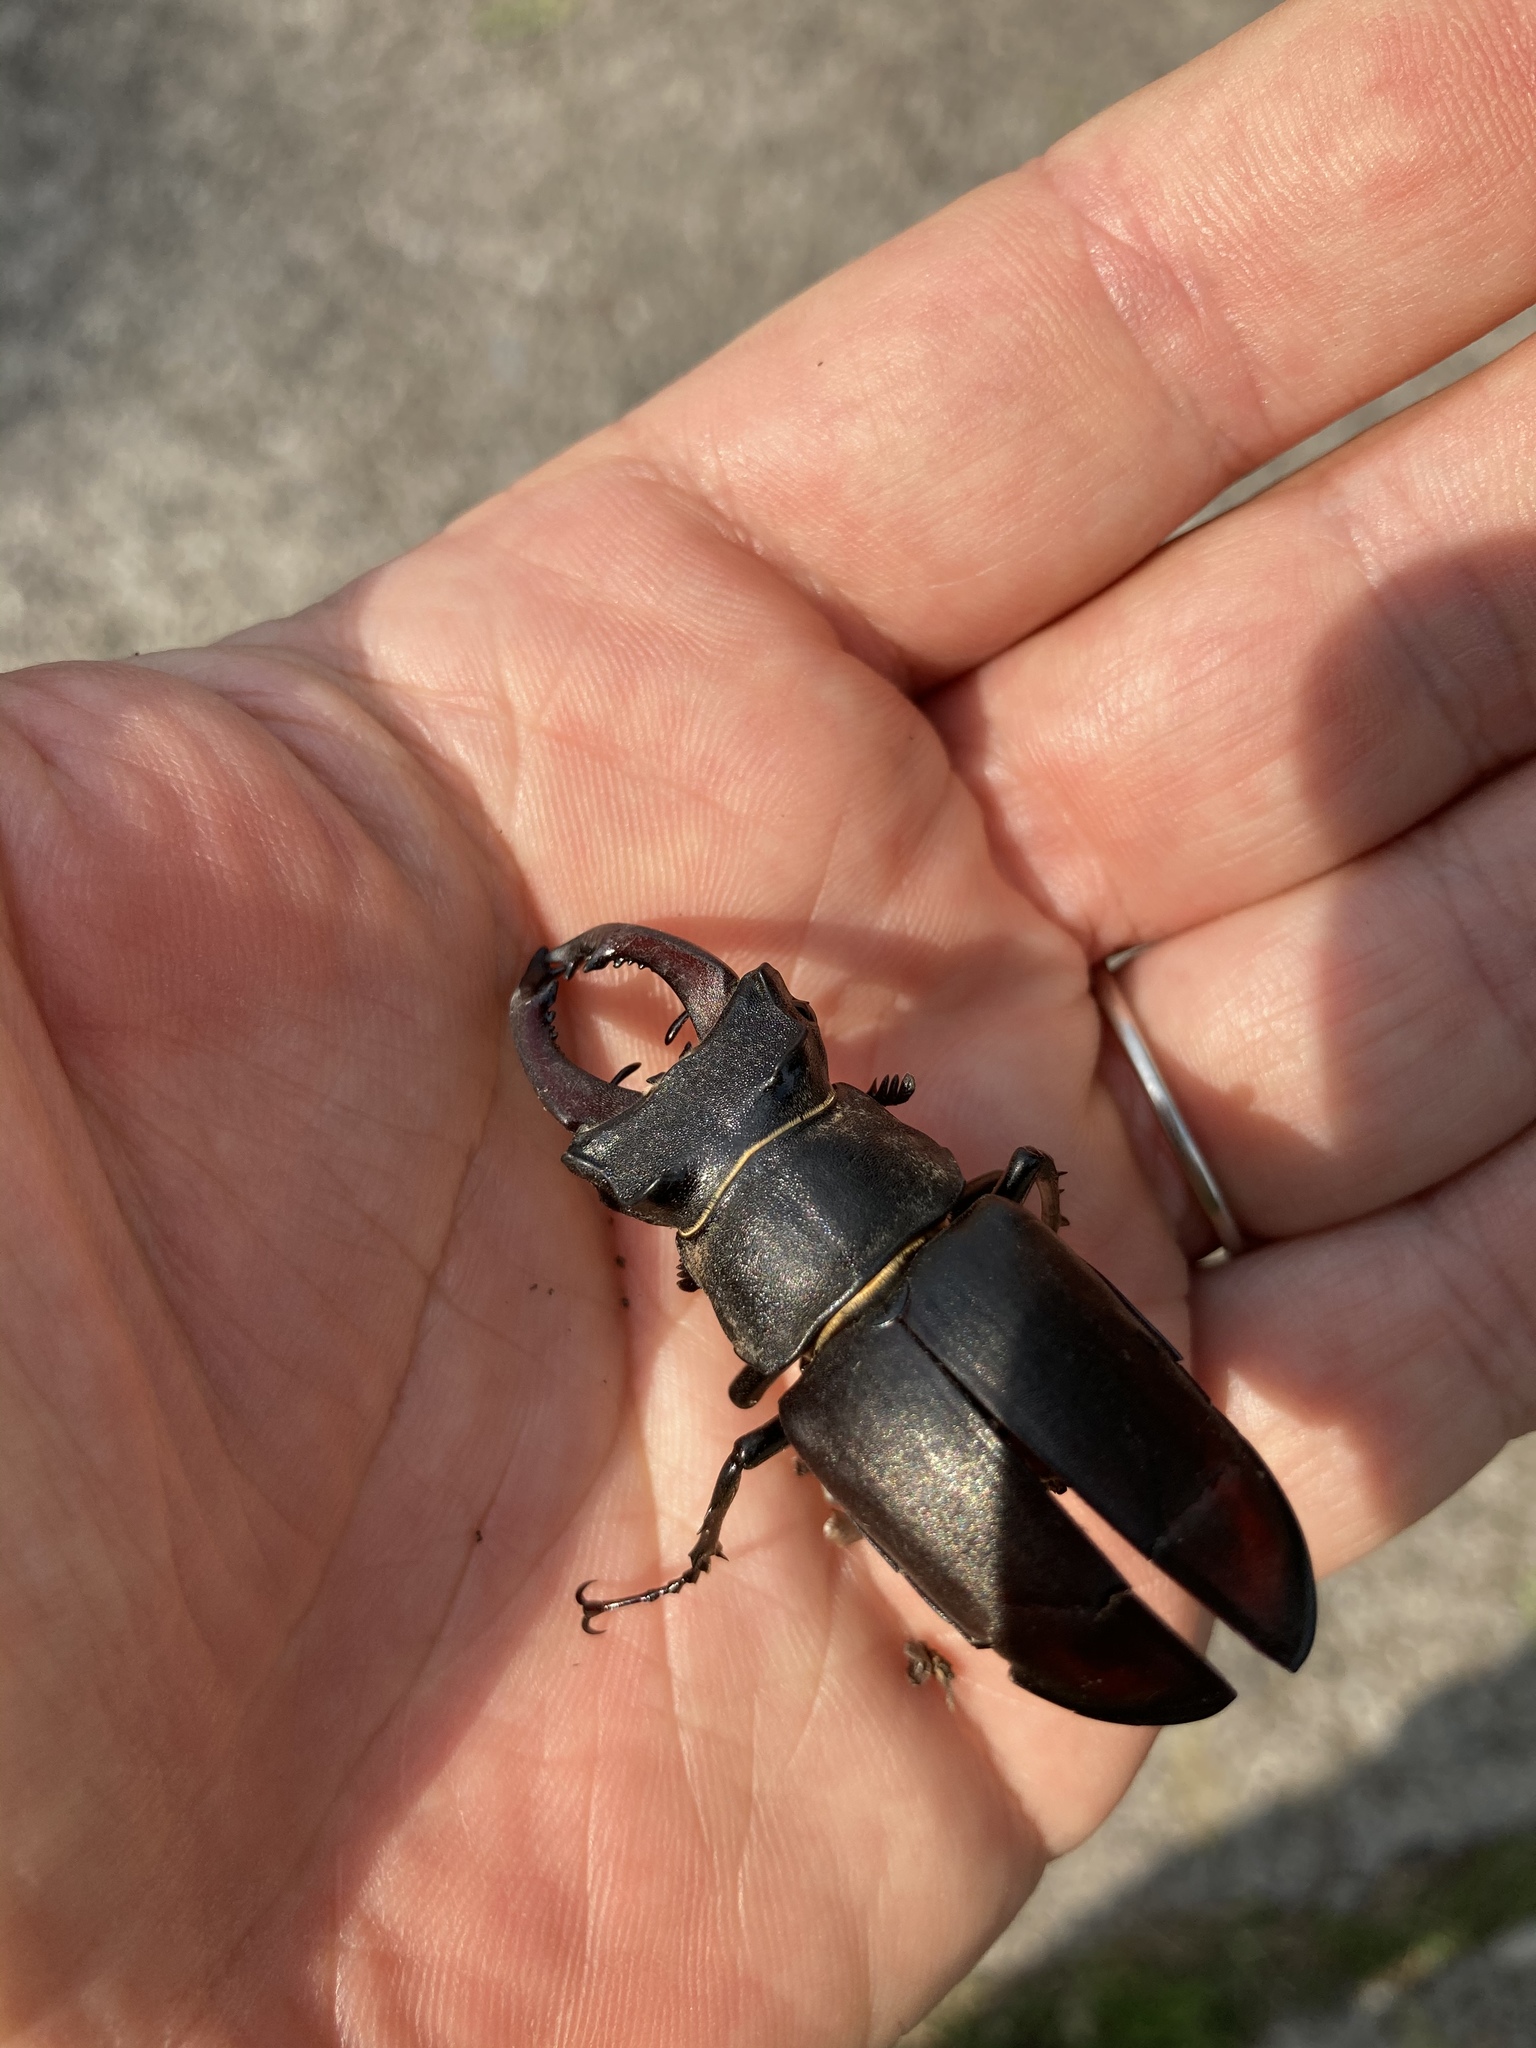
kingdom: Animalia
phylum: Arthropoda
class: Insecta
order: Coleoptera
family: Lucanidae
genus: Lucanus
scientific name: Lucanus cervus
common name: Stag beetle
